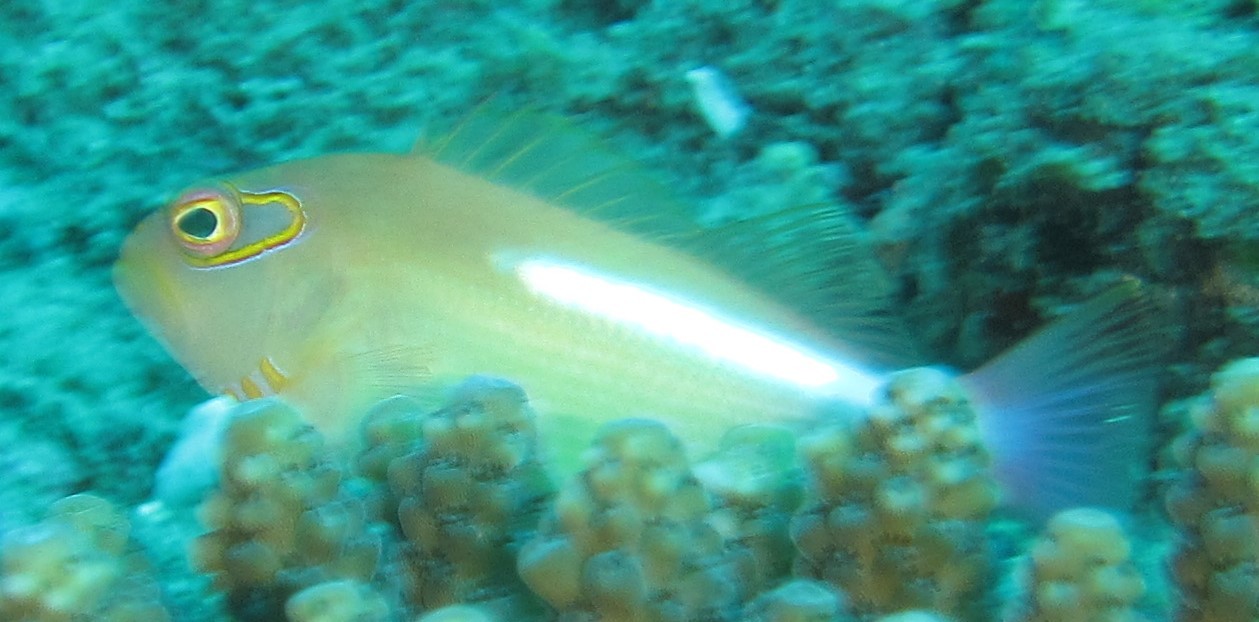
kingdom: Animalia
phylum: Chordata
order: Perciformes
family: Cirrhitidae
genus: Paracirrhites
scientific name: Paracirrhites arcatus
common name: Arc-eye hawkfish
